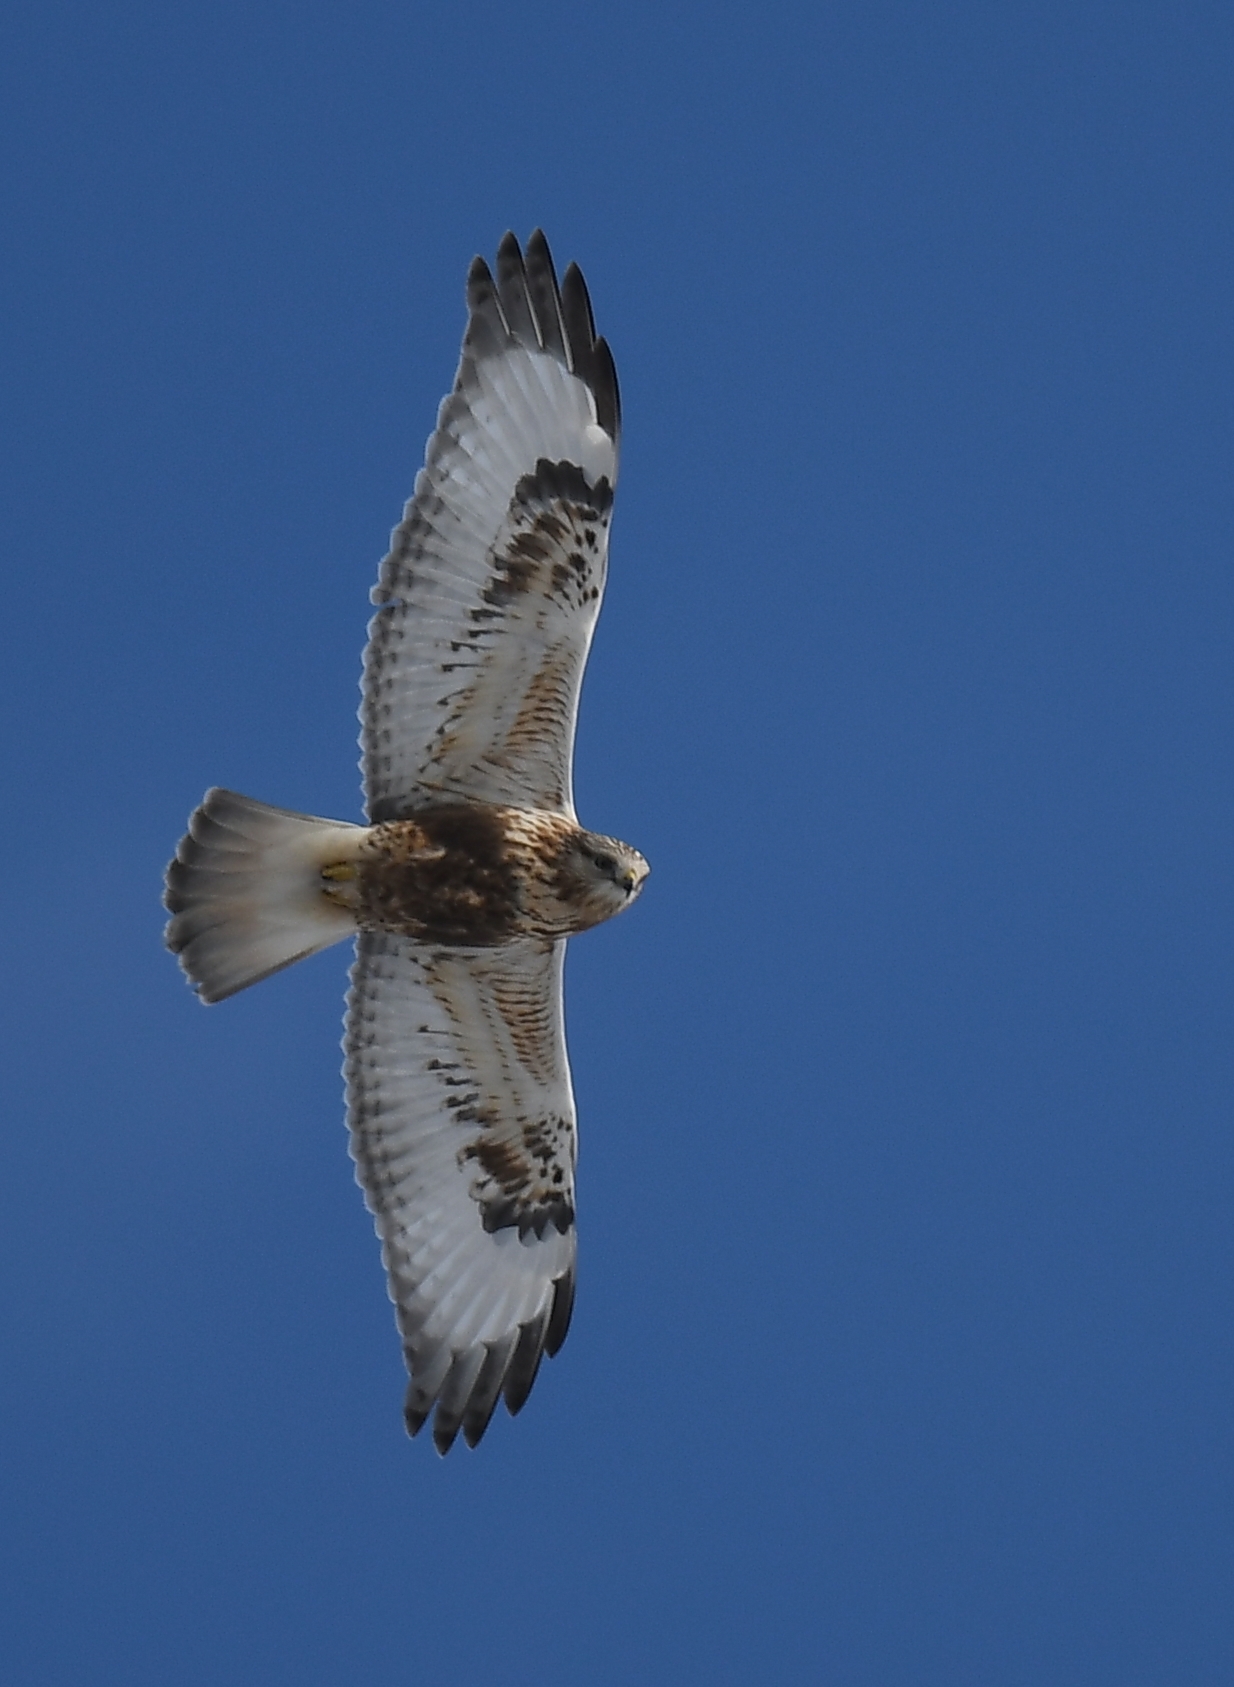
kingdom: Animalia
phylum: Chordata
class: Aves
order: Accipitriformes
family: Accipitridae
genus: Buteo
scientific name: Buteo lagopus
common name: Rough-legged buzzard
